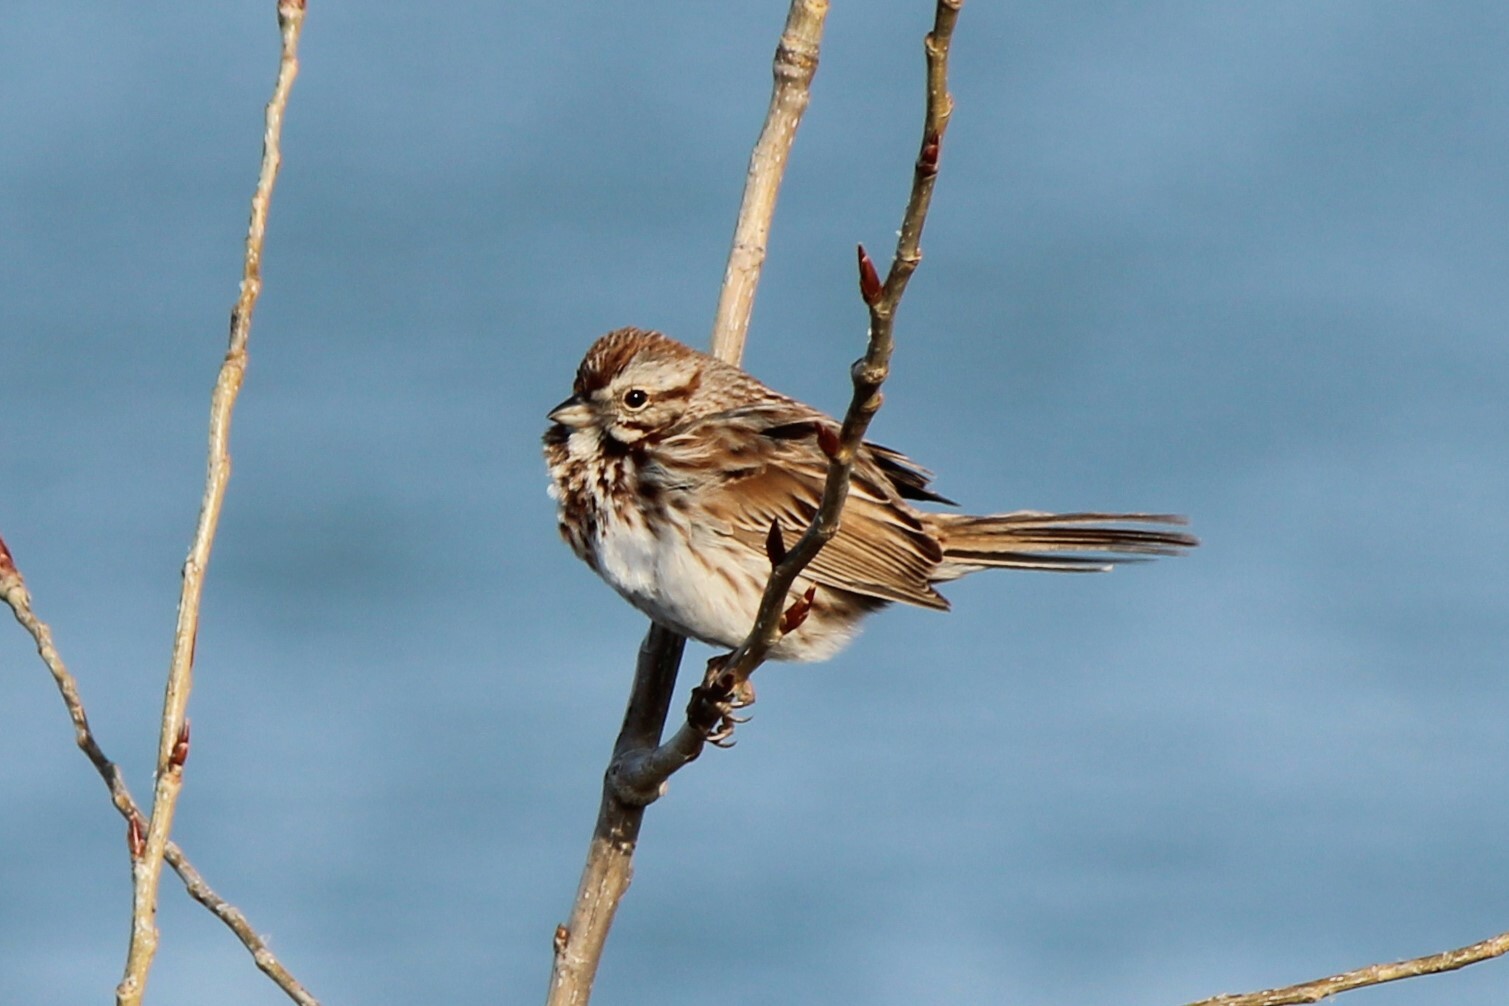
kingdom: Animalia
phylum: Chordata
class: Aves
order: Passeriformes
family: Passerellidae
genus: Melospiza
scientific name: Melospiza melodia
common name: Song sparrow
